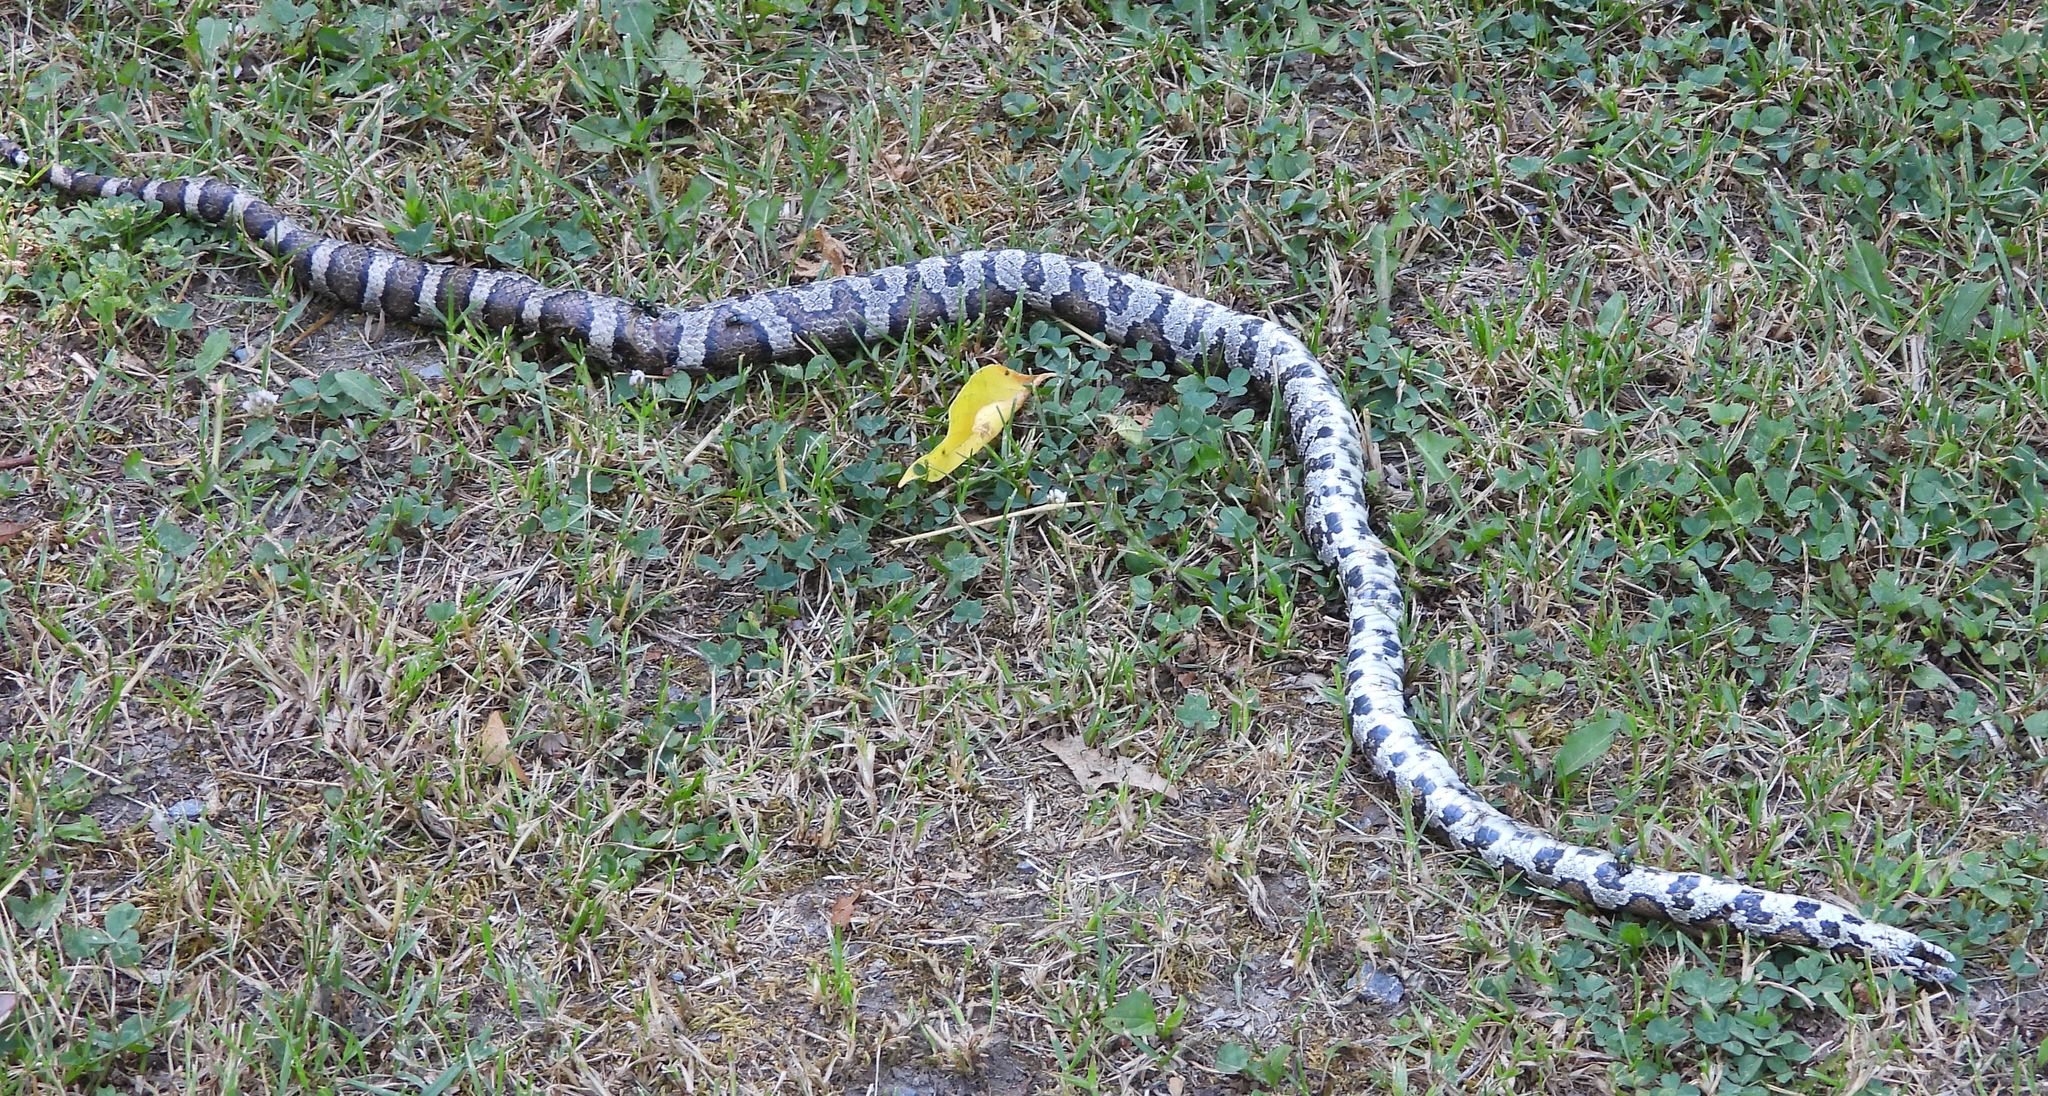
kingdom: Animalia
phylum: Chordata
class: Squamata
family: Colubridae
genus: Lampropeltis
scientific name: Lampropeltis triangulum
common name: Eastern milksnake
